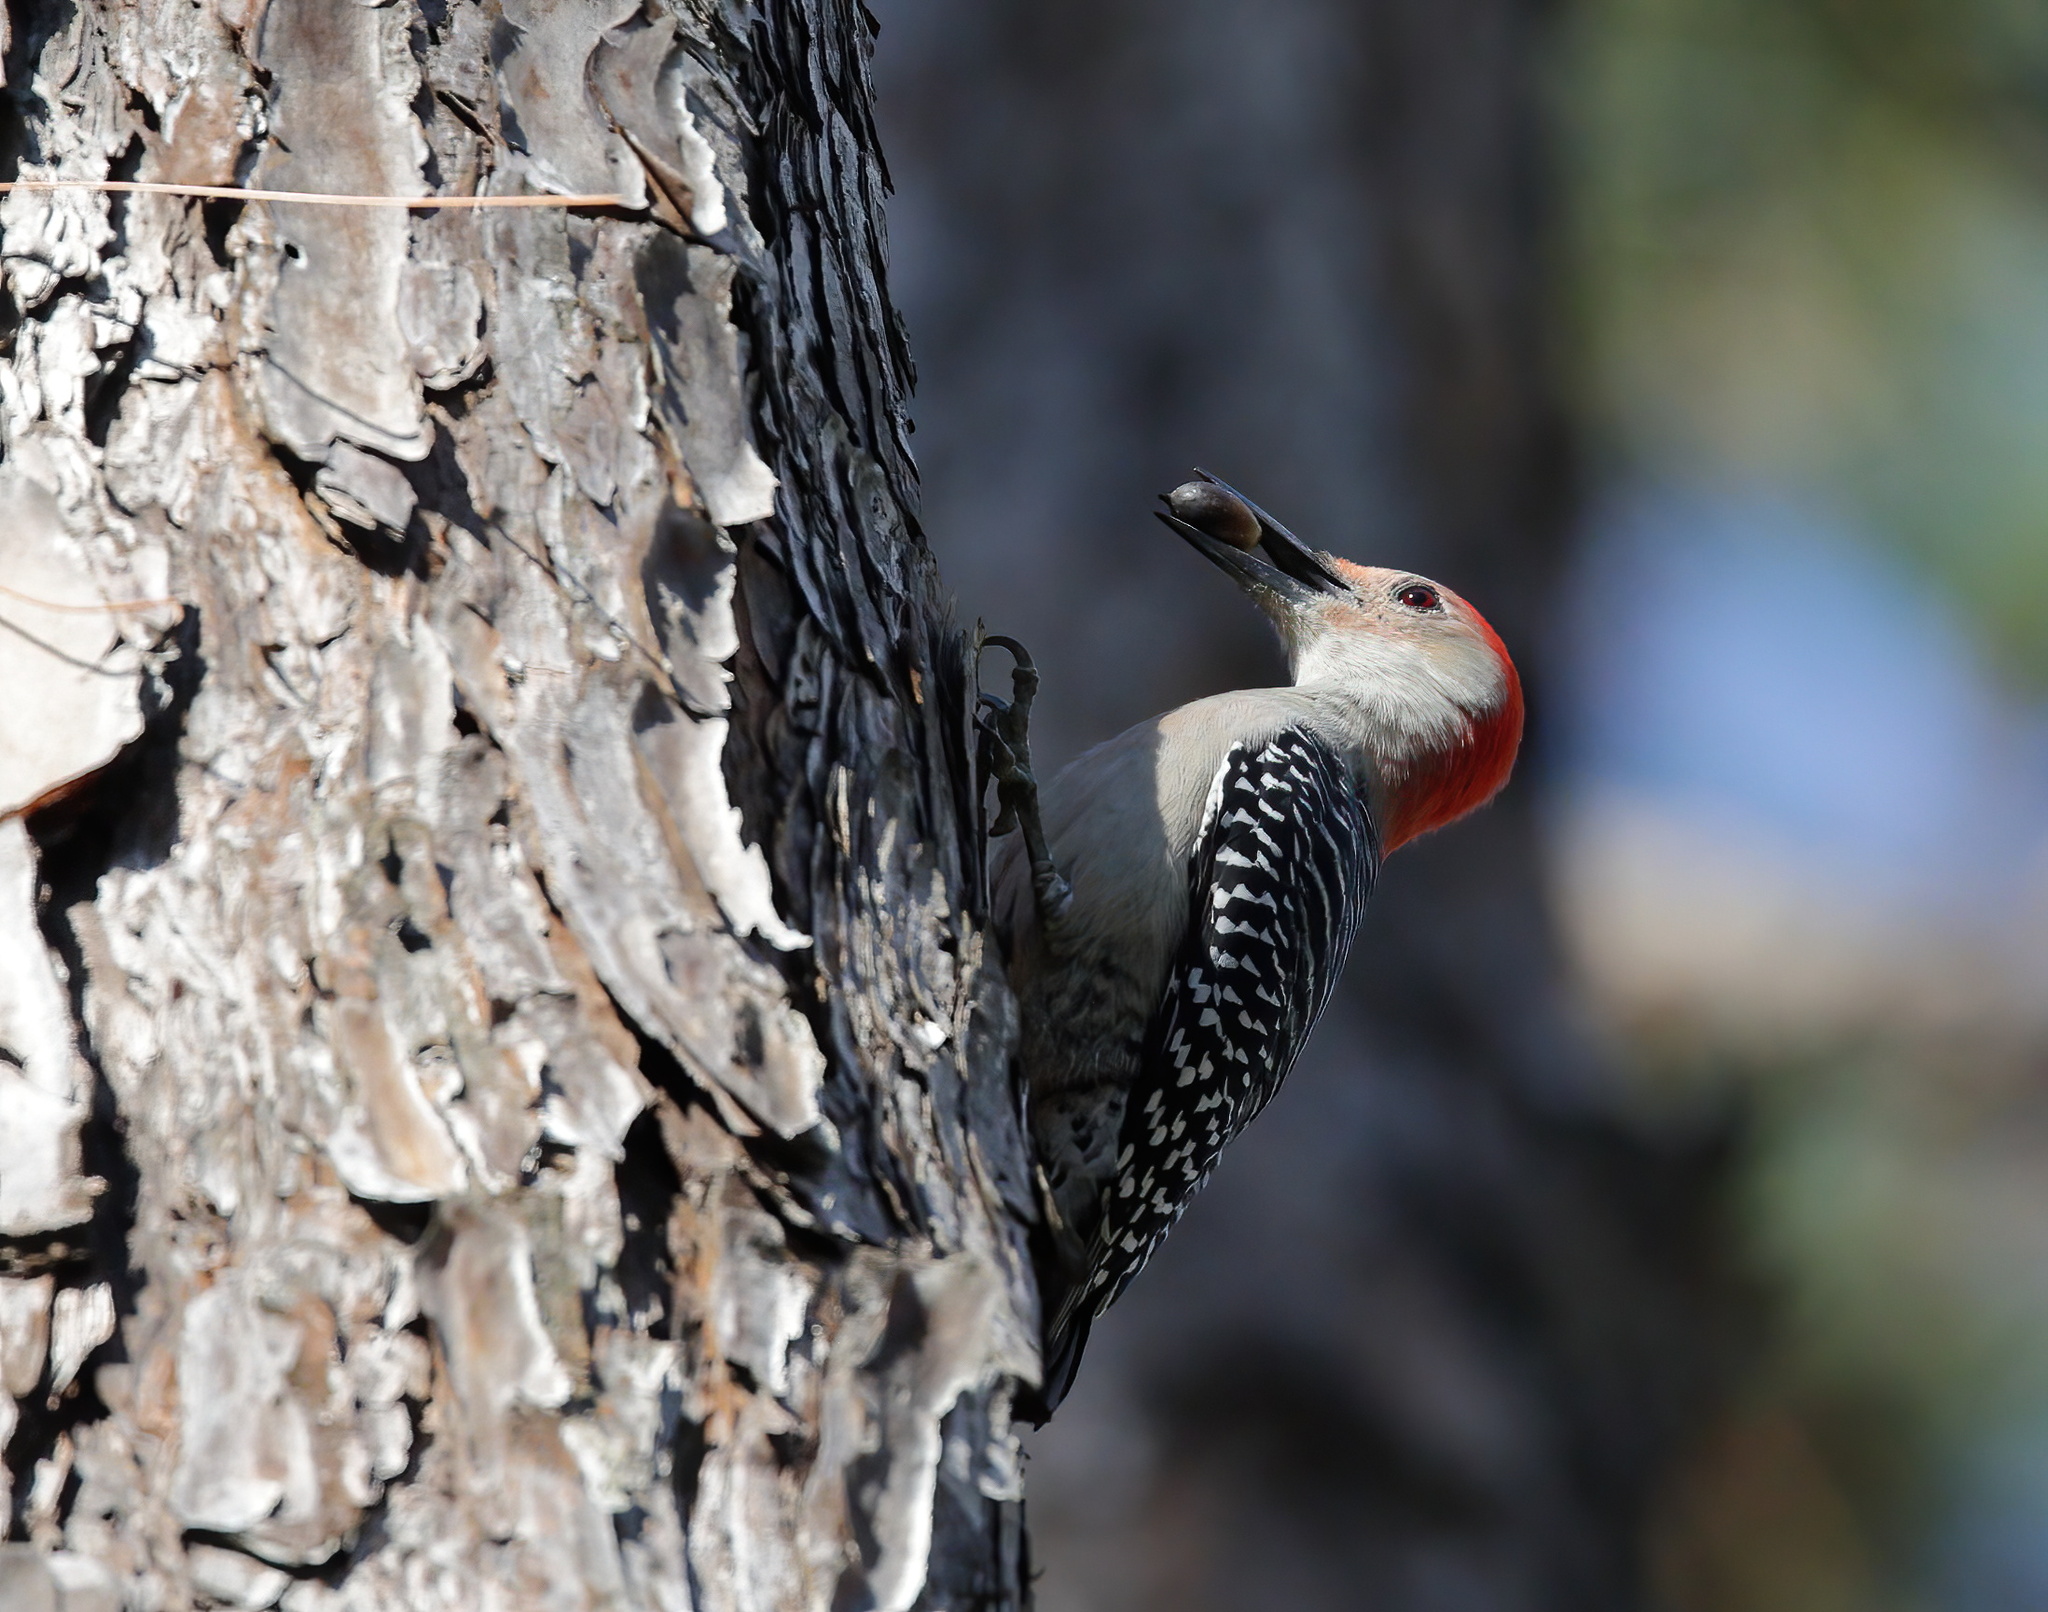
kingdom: Animalia
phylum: Chordata
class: Aves
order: Piciformes
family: Picidae
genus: Melanerpes
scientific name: Melanerpes carolinus
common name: Red-bellied woodpecker
